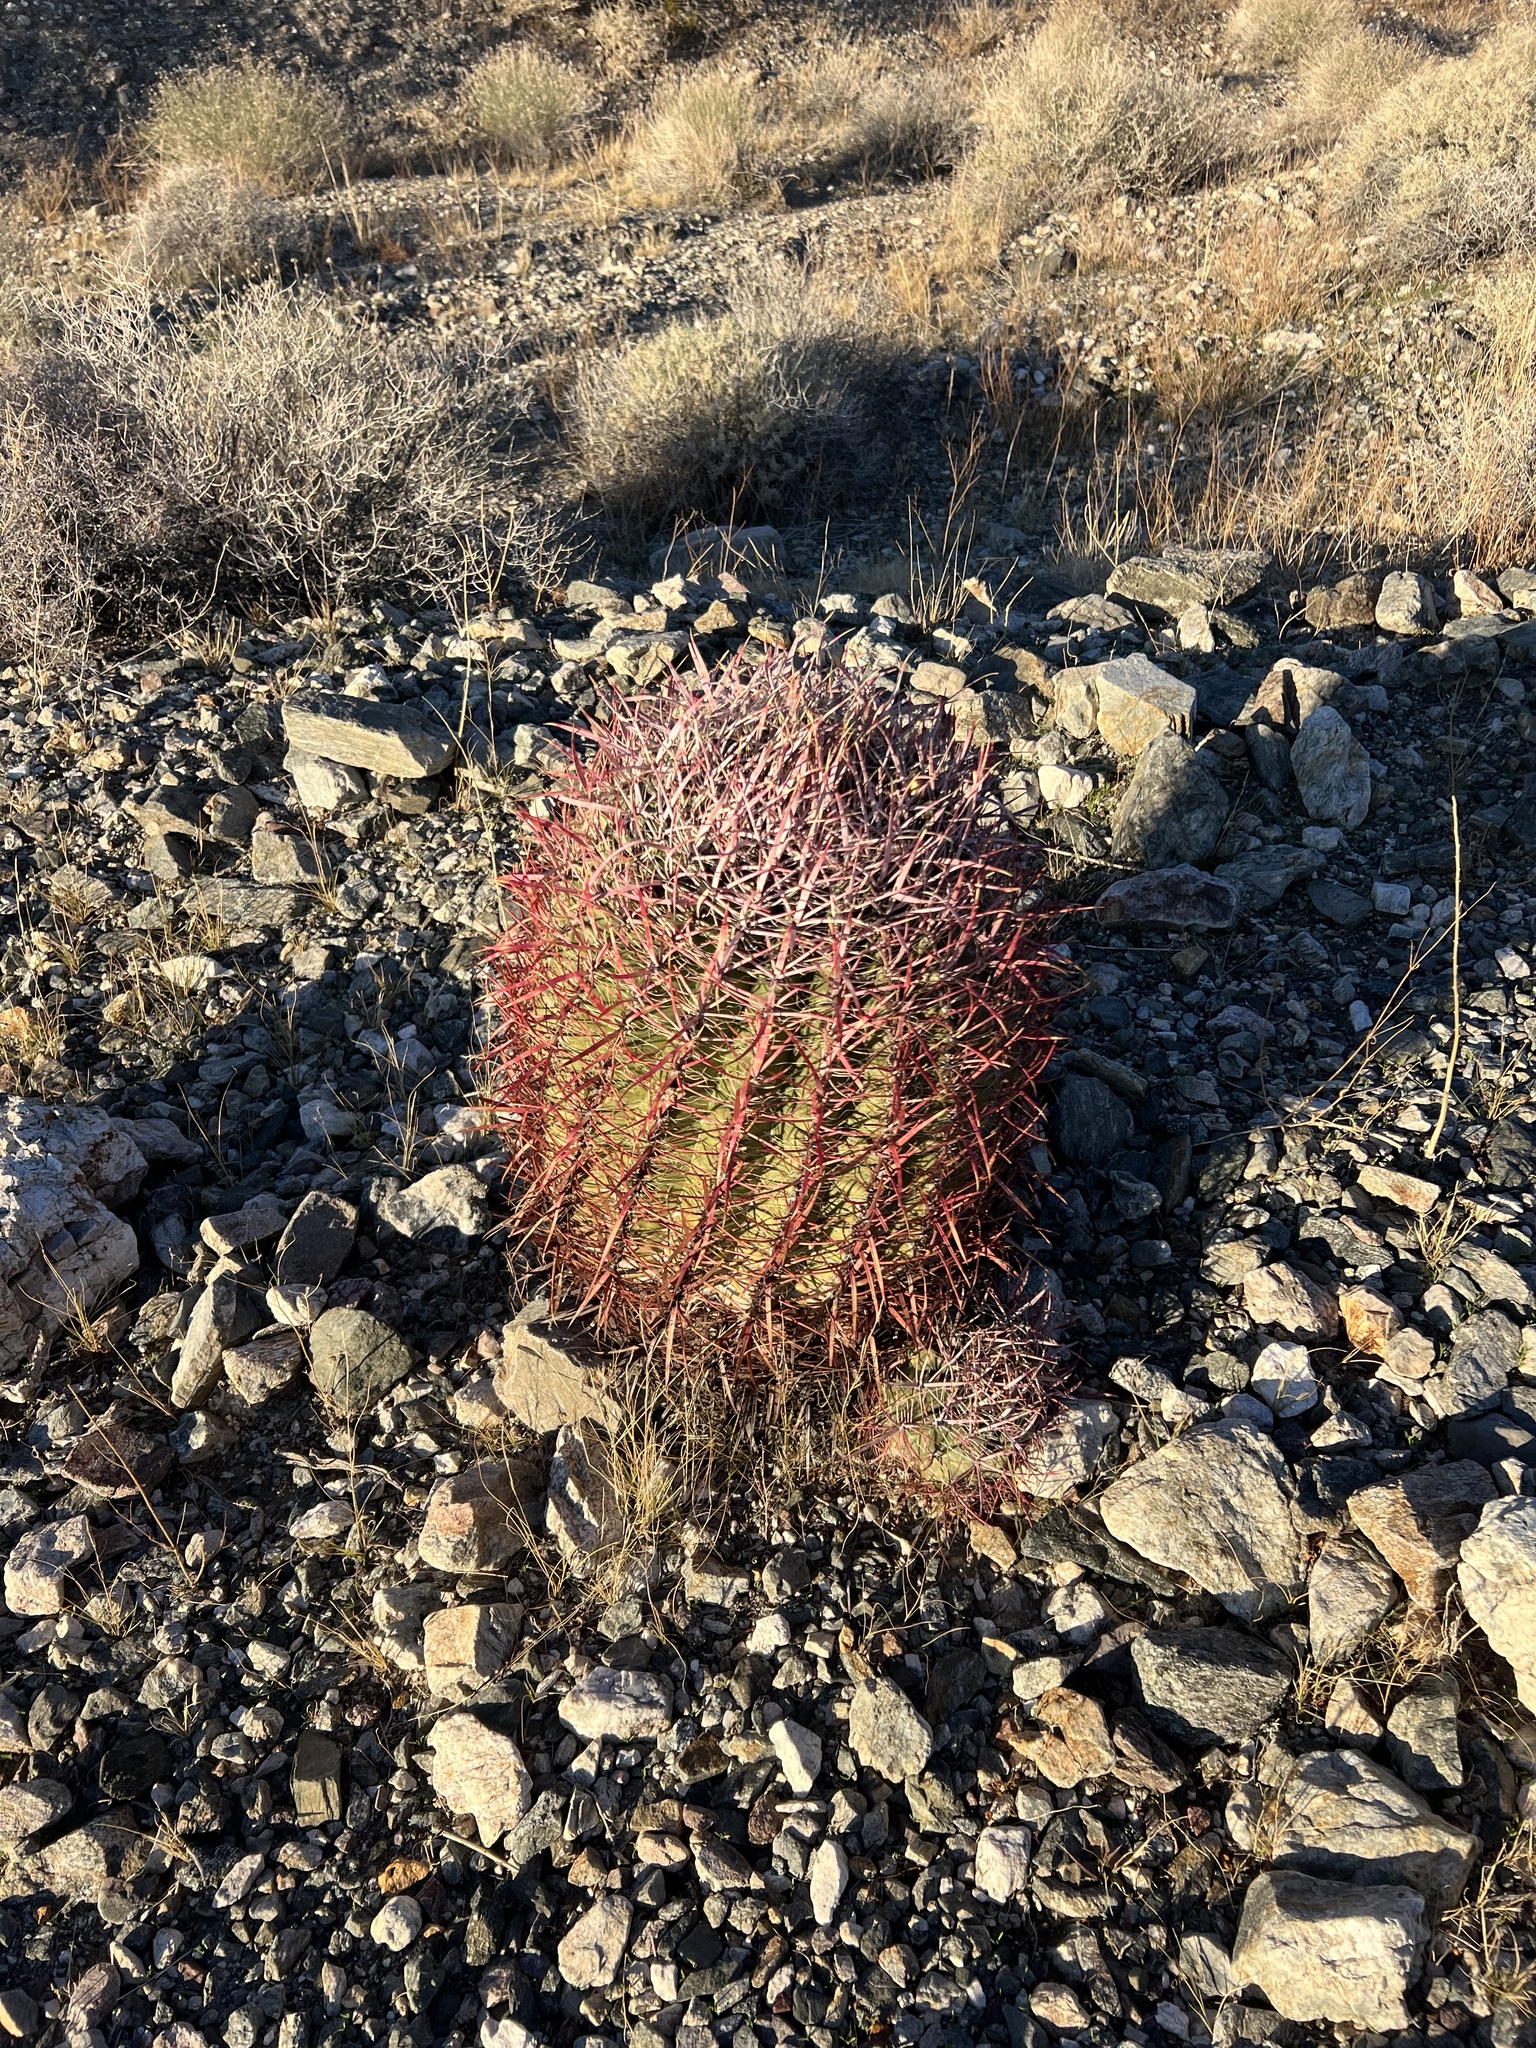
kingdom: Plantae
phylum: Tracheophyta
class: Magnoliopsida
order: Caryophyllales
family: Cactaceae
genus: Ferocactus
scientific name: Ferocactus cylindraceus
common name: California barrel cactus
